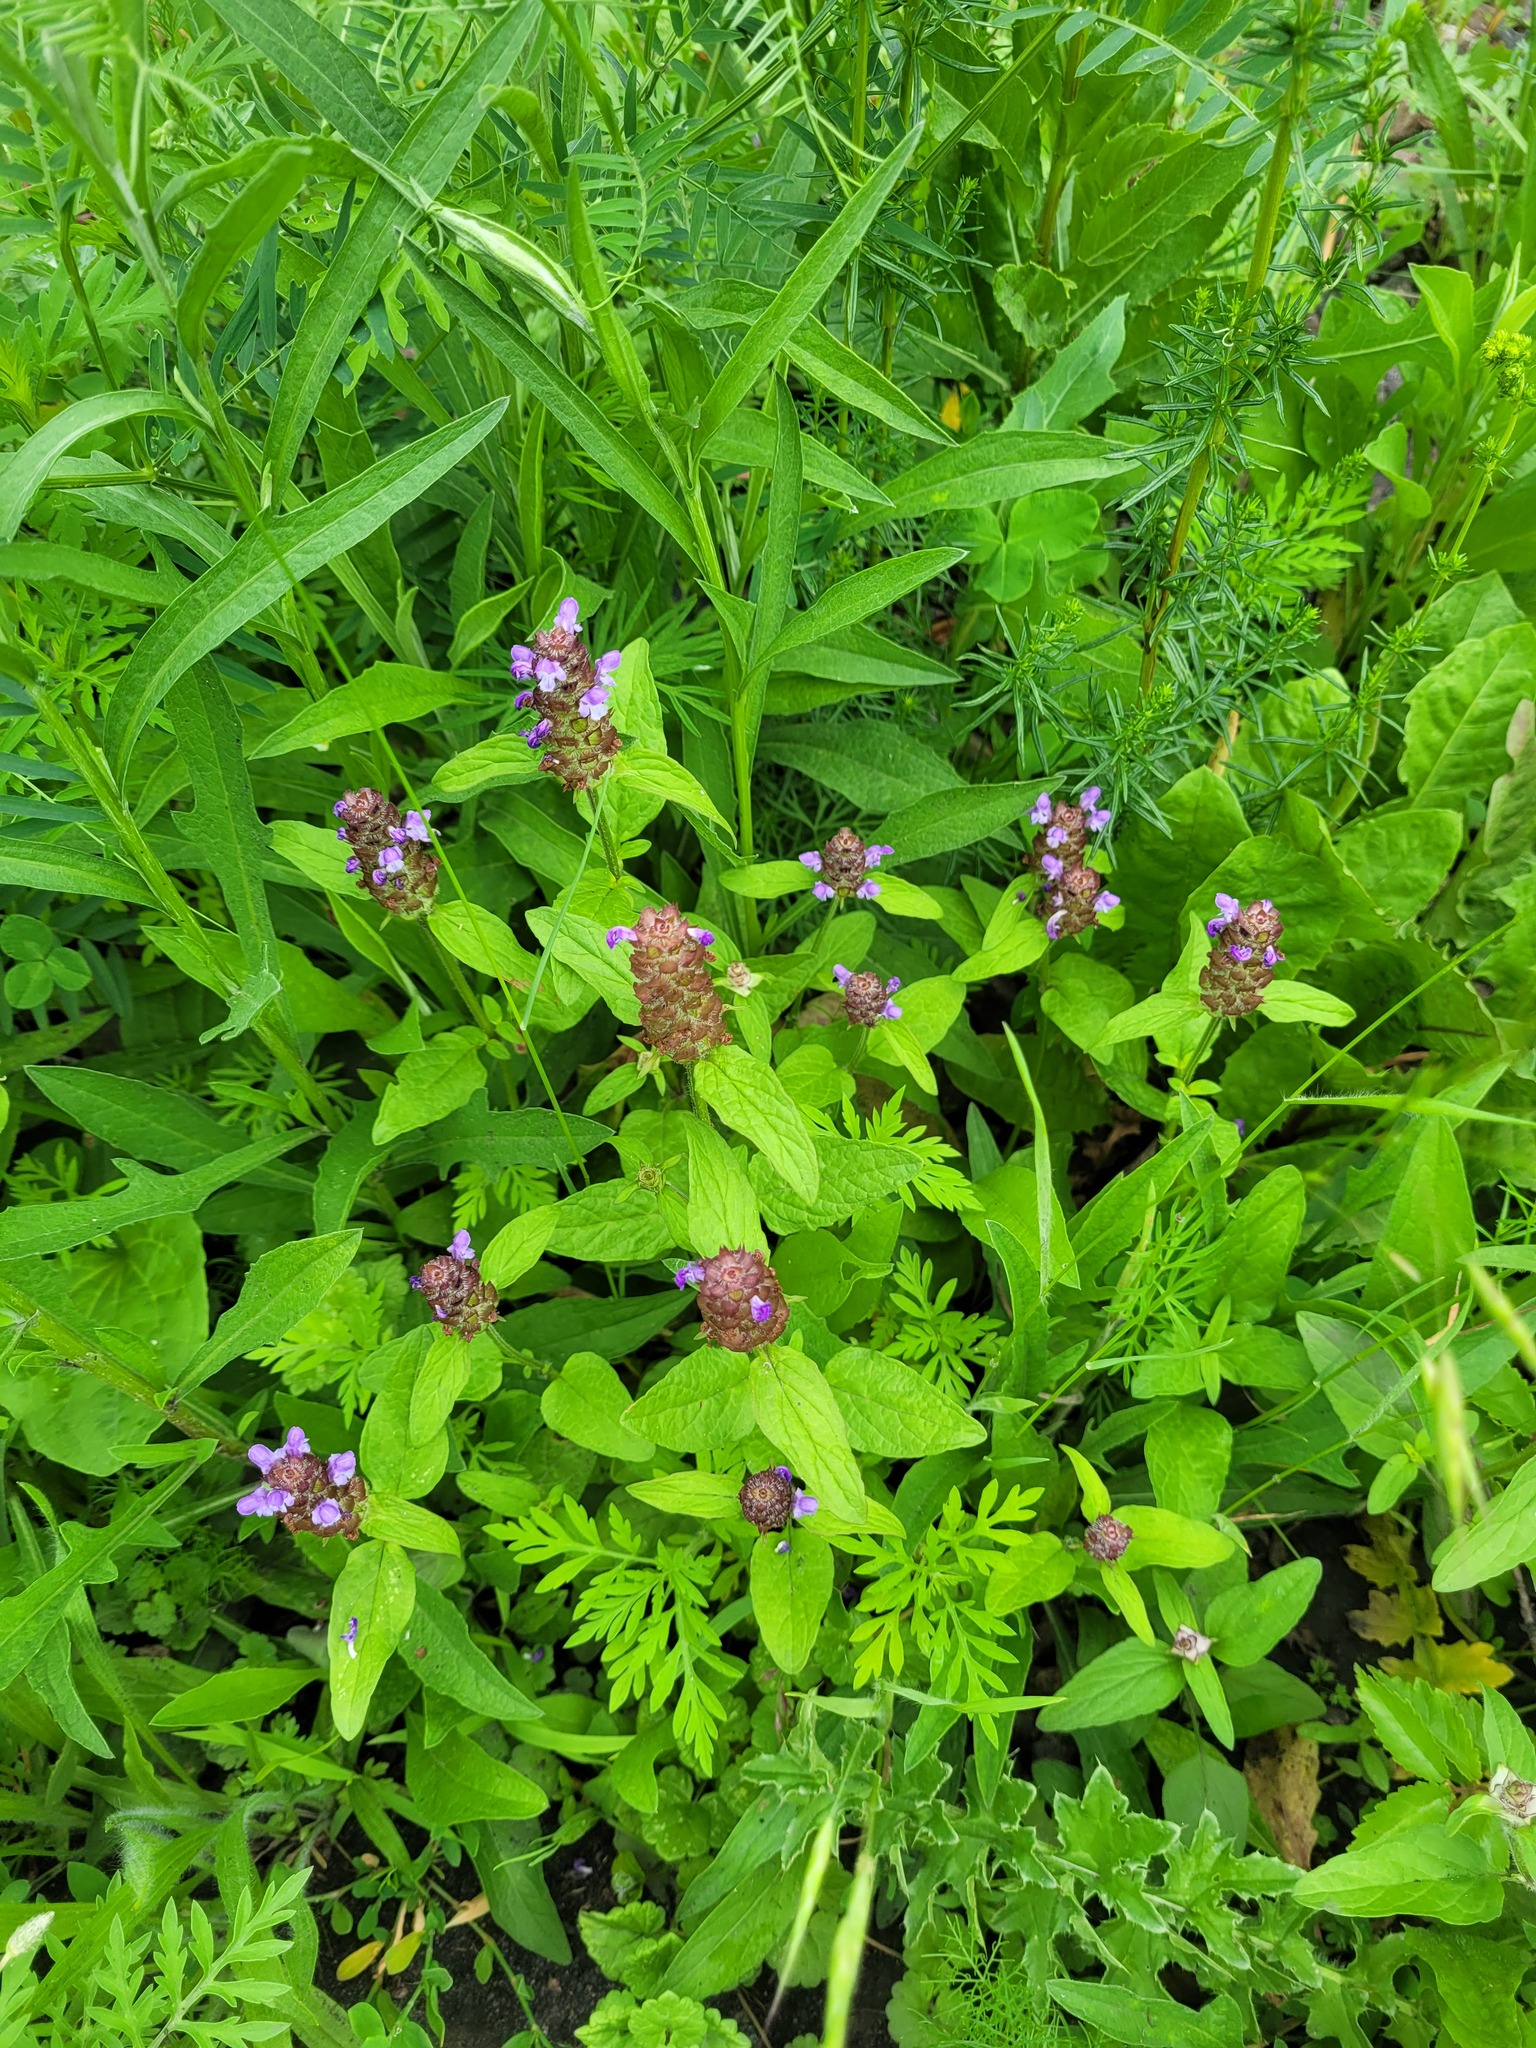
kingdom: Plantae
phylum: Tracheophyta
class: Magnoliopsida
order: Lamiales
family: Lamiaceae
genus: Prunella
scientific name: Prunella vulgaris
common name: Heal-all
